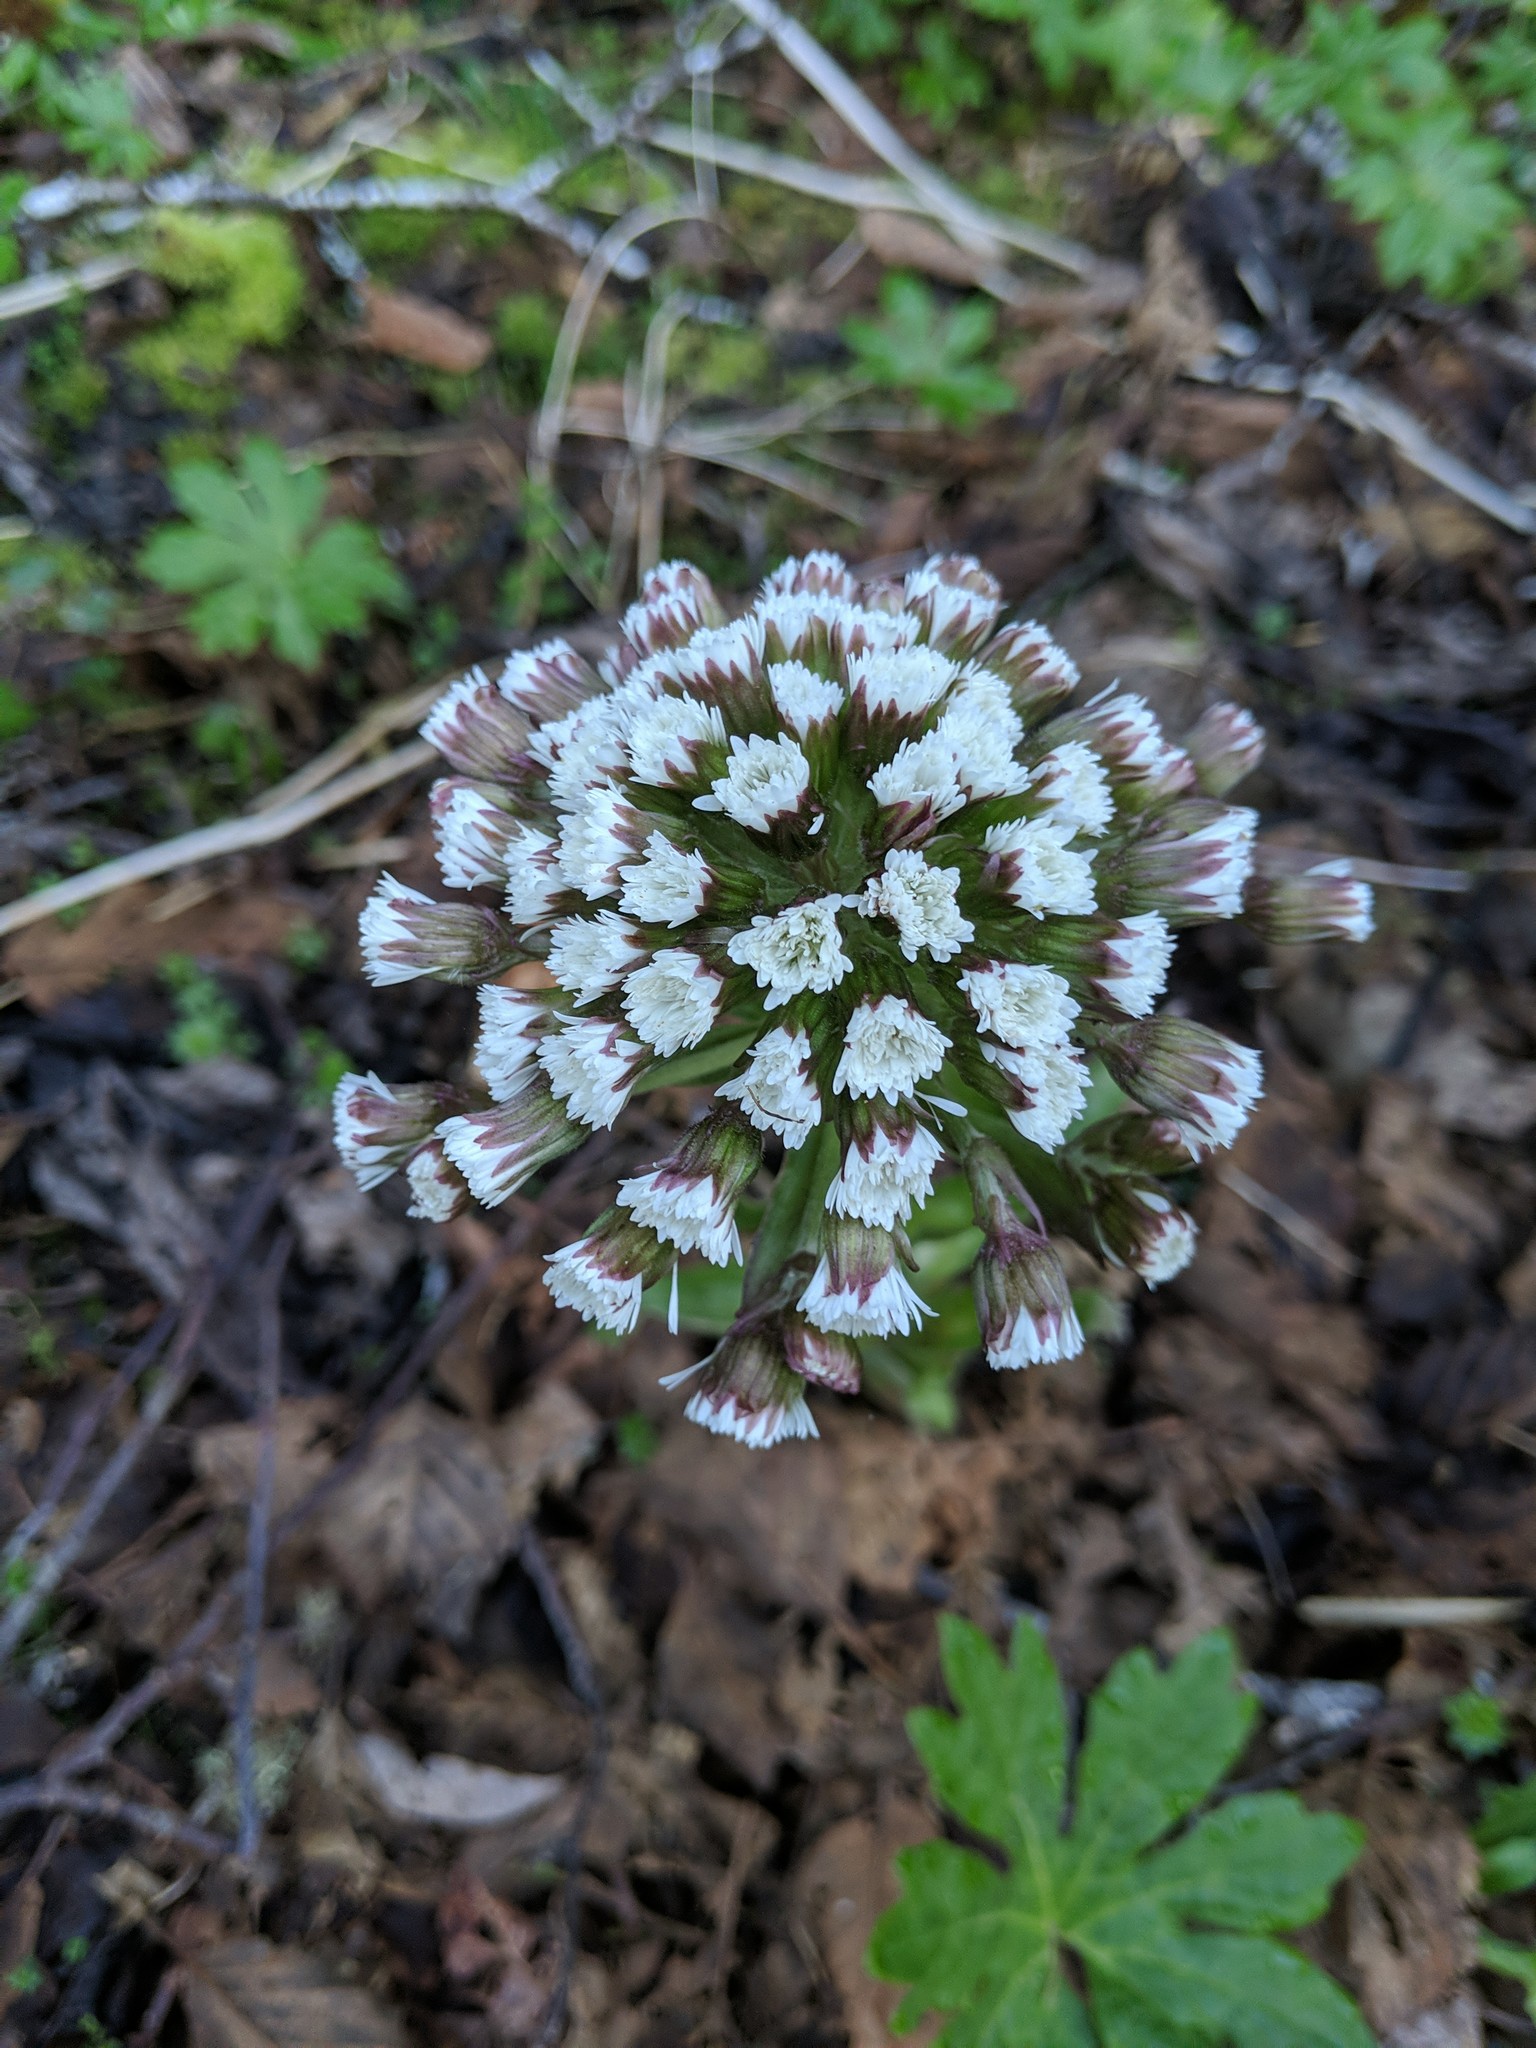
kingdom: Plantae
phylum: Tracheophyta
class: Magnoliopsida
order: Asterales
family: Asteraceae
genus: Petasites
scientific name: Petasites frigidus
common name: Arctic butterbur
